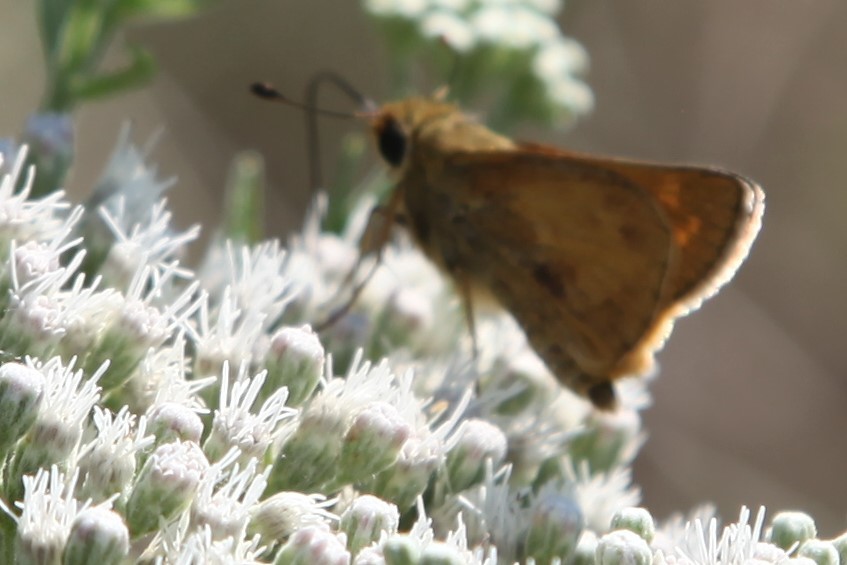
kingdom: Animalia
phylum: Arthropoda
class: Insecta
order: Lepidoptera
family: Hesperiidae
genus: Atalopedes
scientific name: Atalopedes
